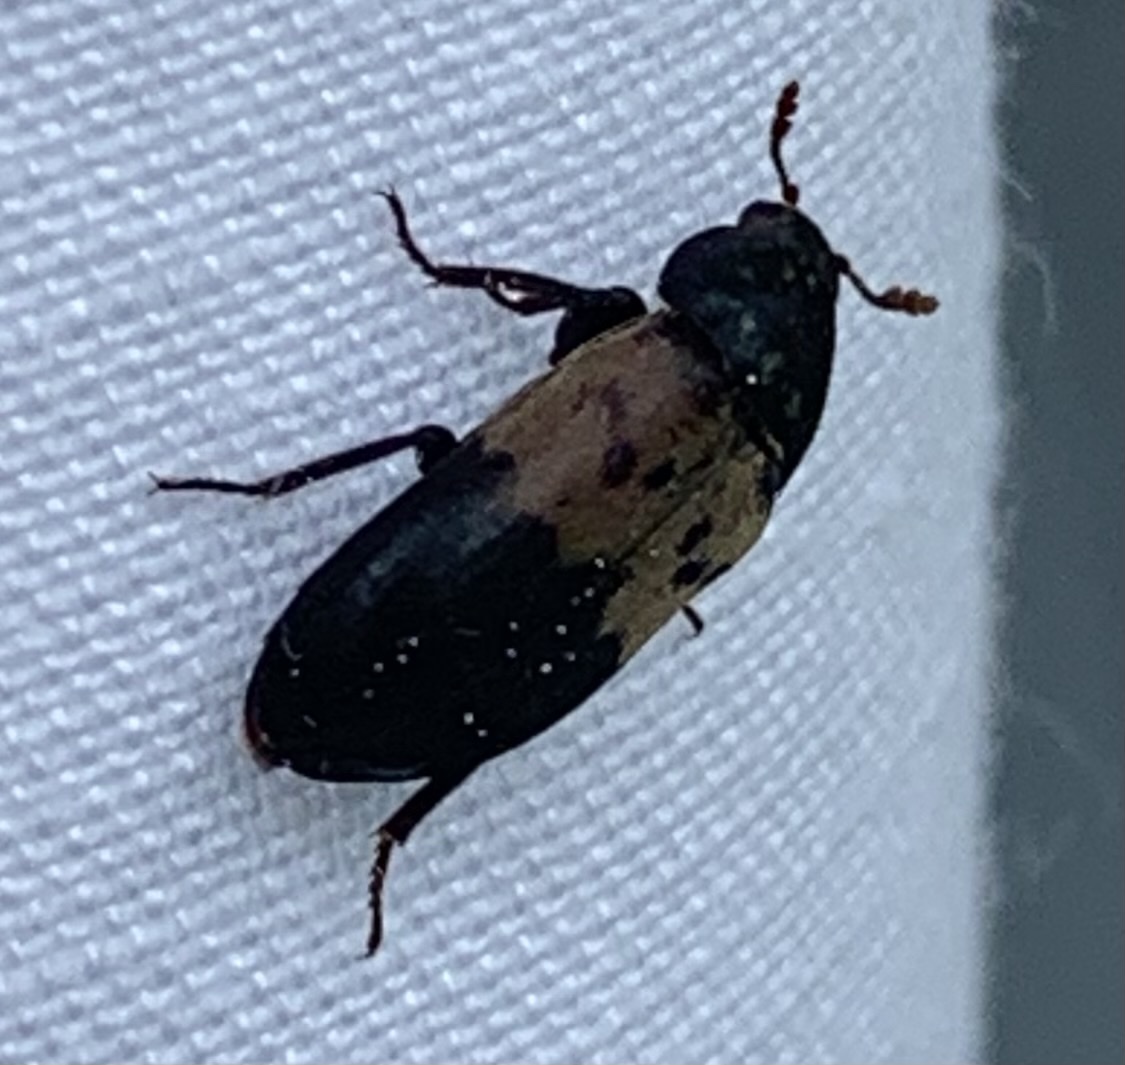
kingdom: Animalia
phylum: Arthropoda
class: Insecta
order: Coleoptera
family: Dermestidae
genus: Dermestes
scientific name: Dermestes lardarius
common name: Larder beetle
